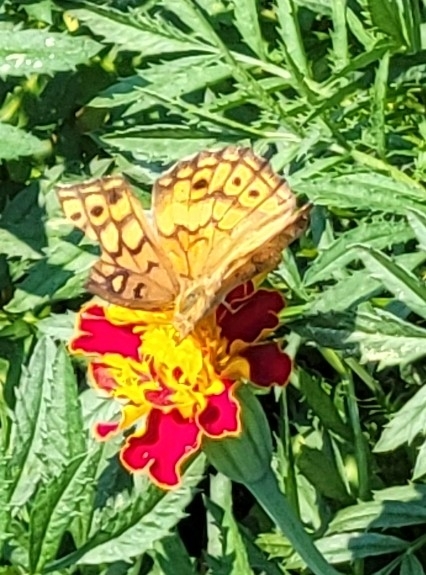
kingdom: Animalia
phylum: Arthropoda
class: Insecta
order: Lepidoptera
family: Nymphalidae
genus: Euptoieta
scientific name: Euptoieta claudia
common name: Variegated fritillary
